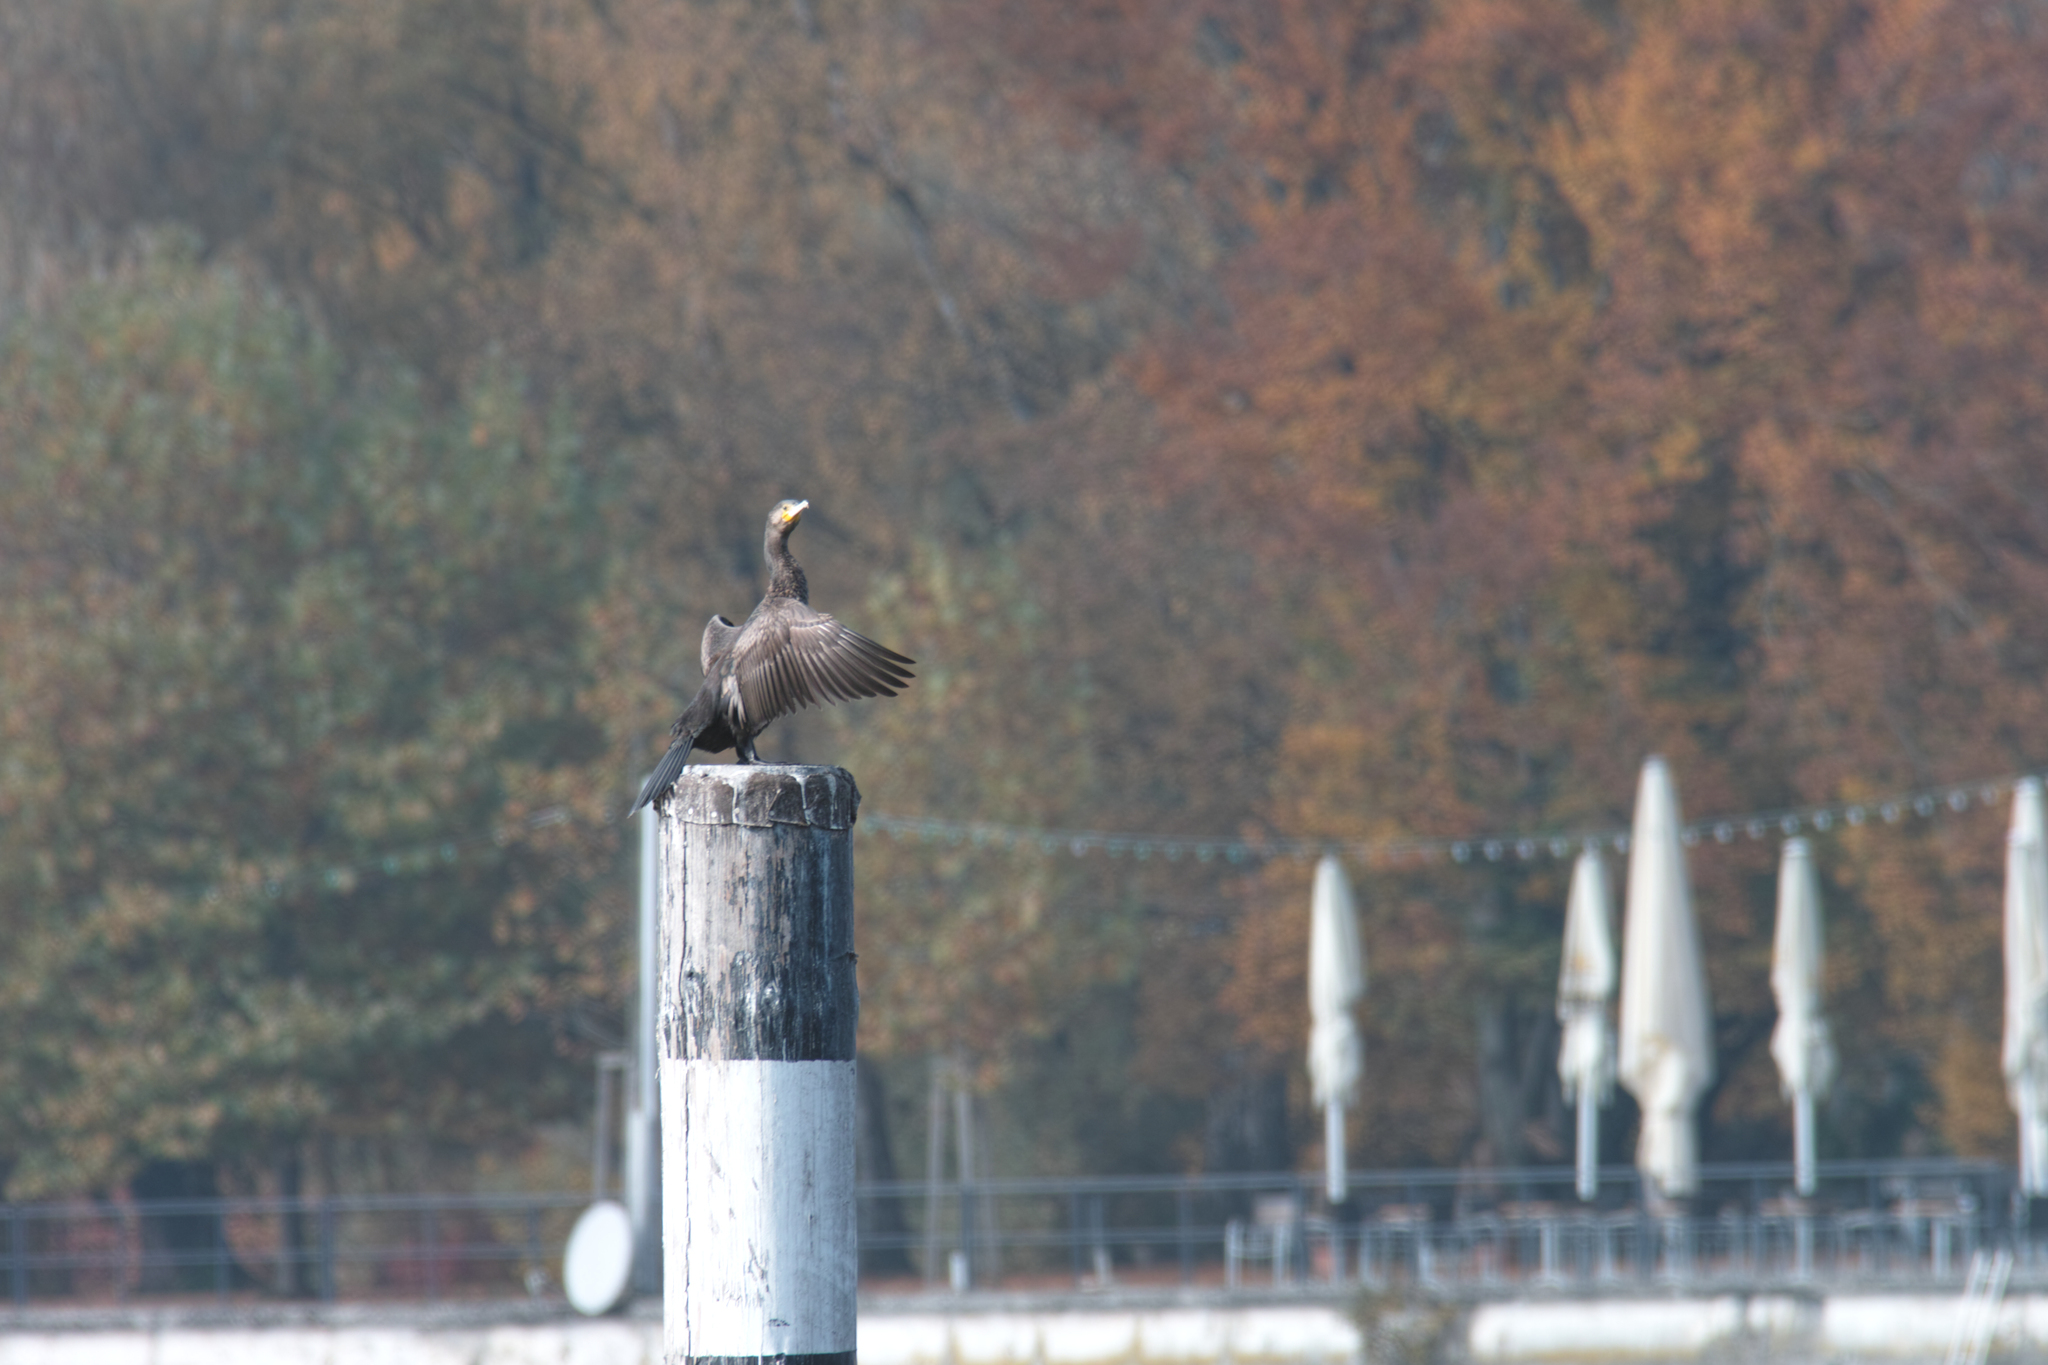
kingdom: Animalia
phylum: Chordata
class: Aves
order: Suliformes
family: Phalacrocoracidae
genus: Phalacrocorax
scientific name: Phalacrocorax carbo
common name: Great cormorant
